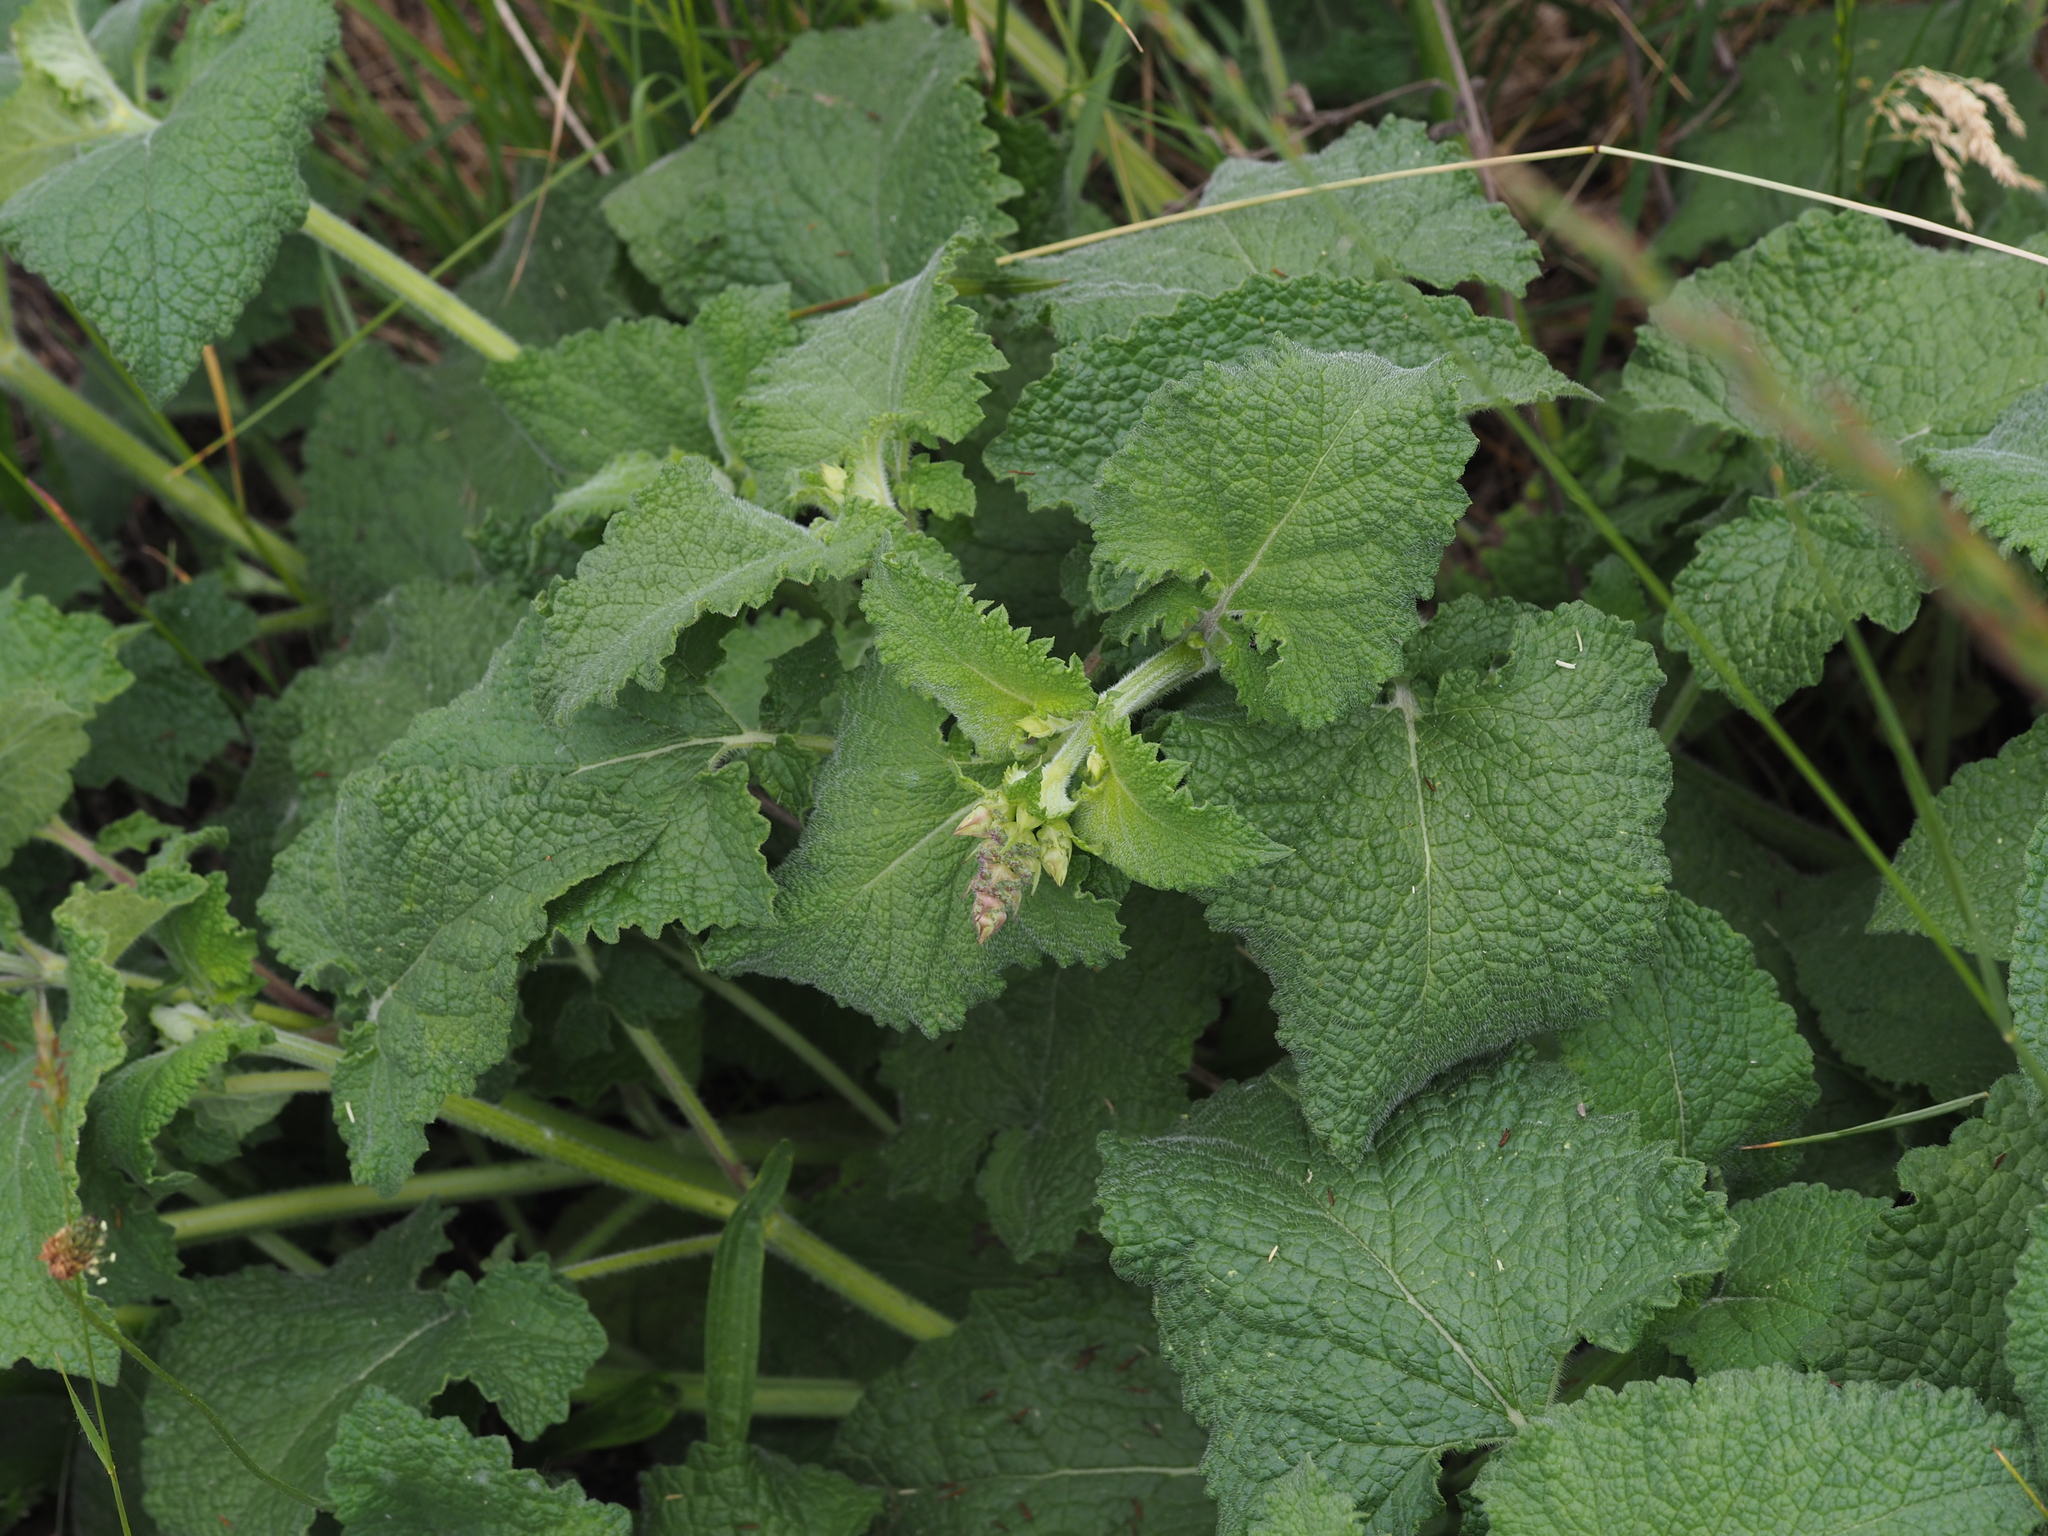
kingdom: Plantae
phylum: Tracheophyta
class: Magnoliopsida
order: Lamiales
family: Lamiaceae
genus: Salvia
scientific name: Salvia verticillata
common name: Whorled clary
